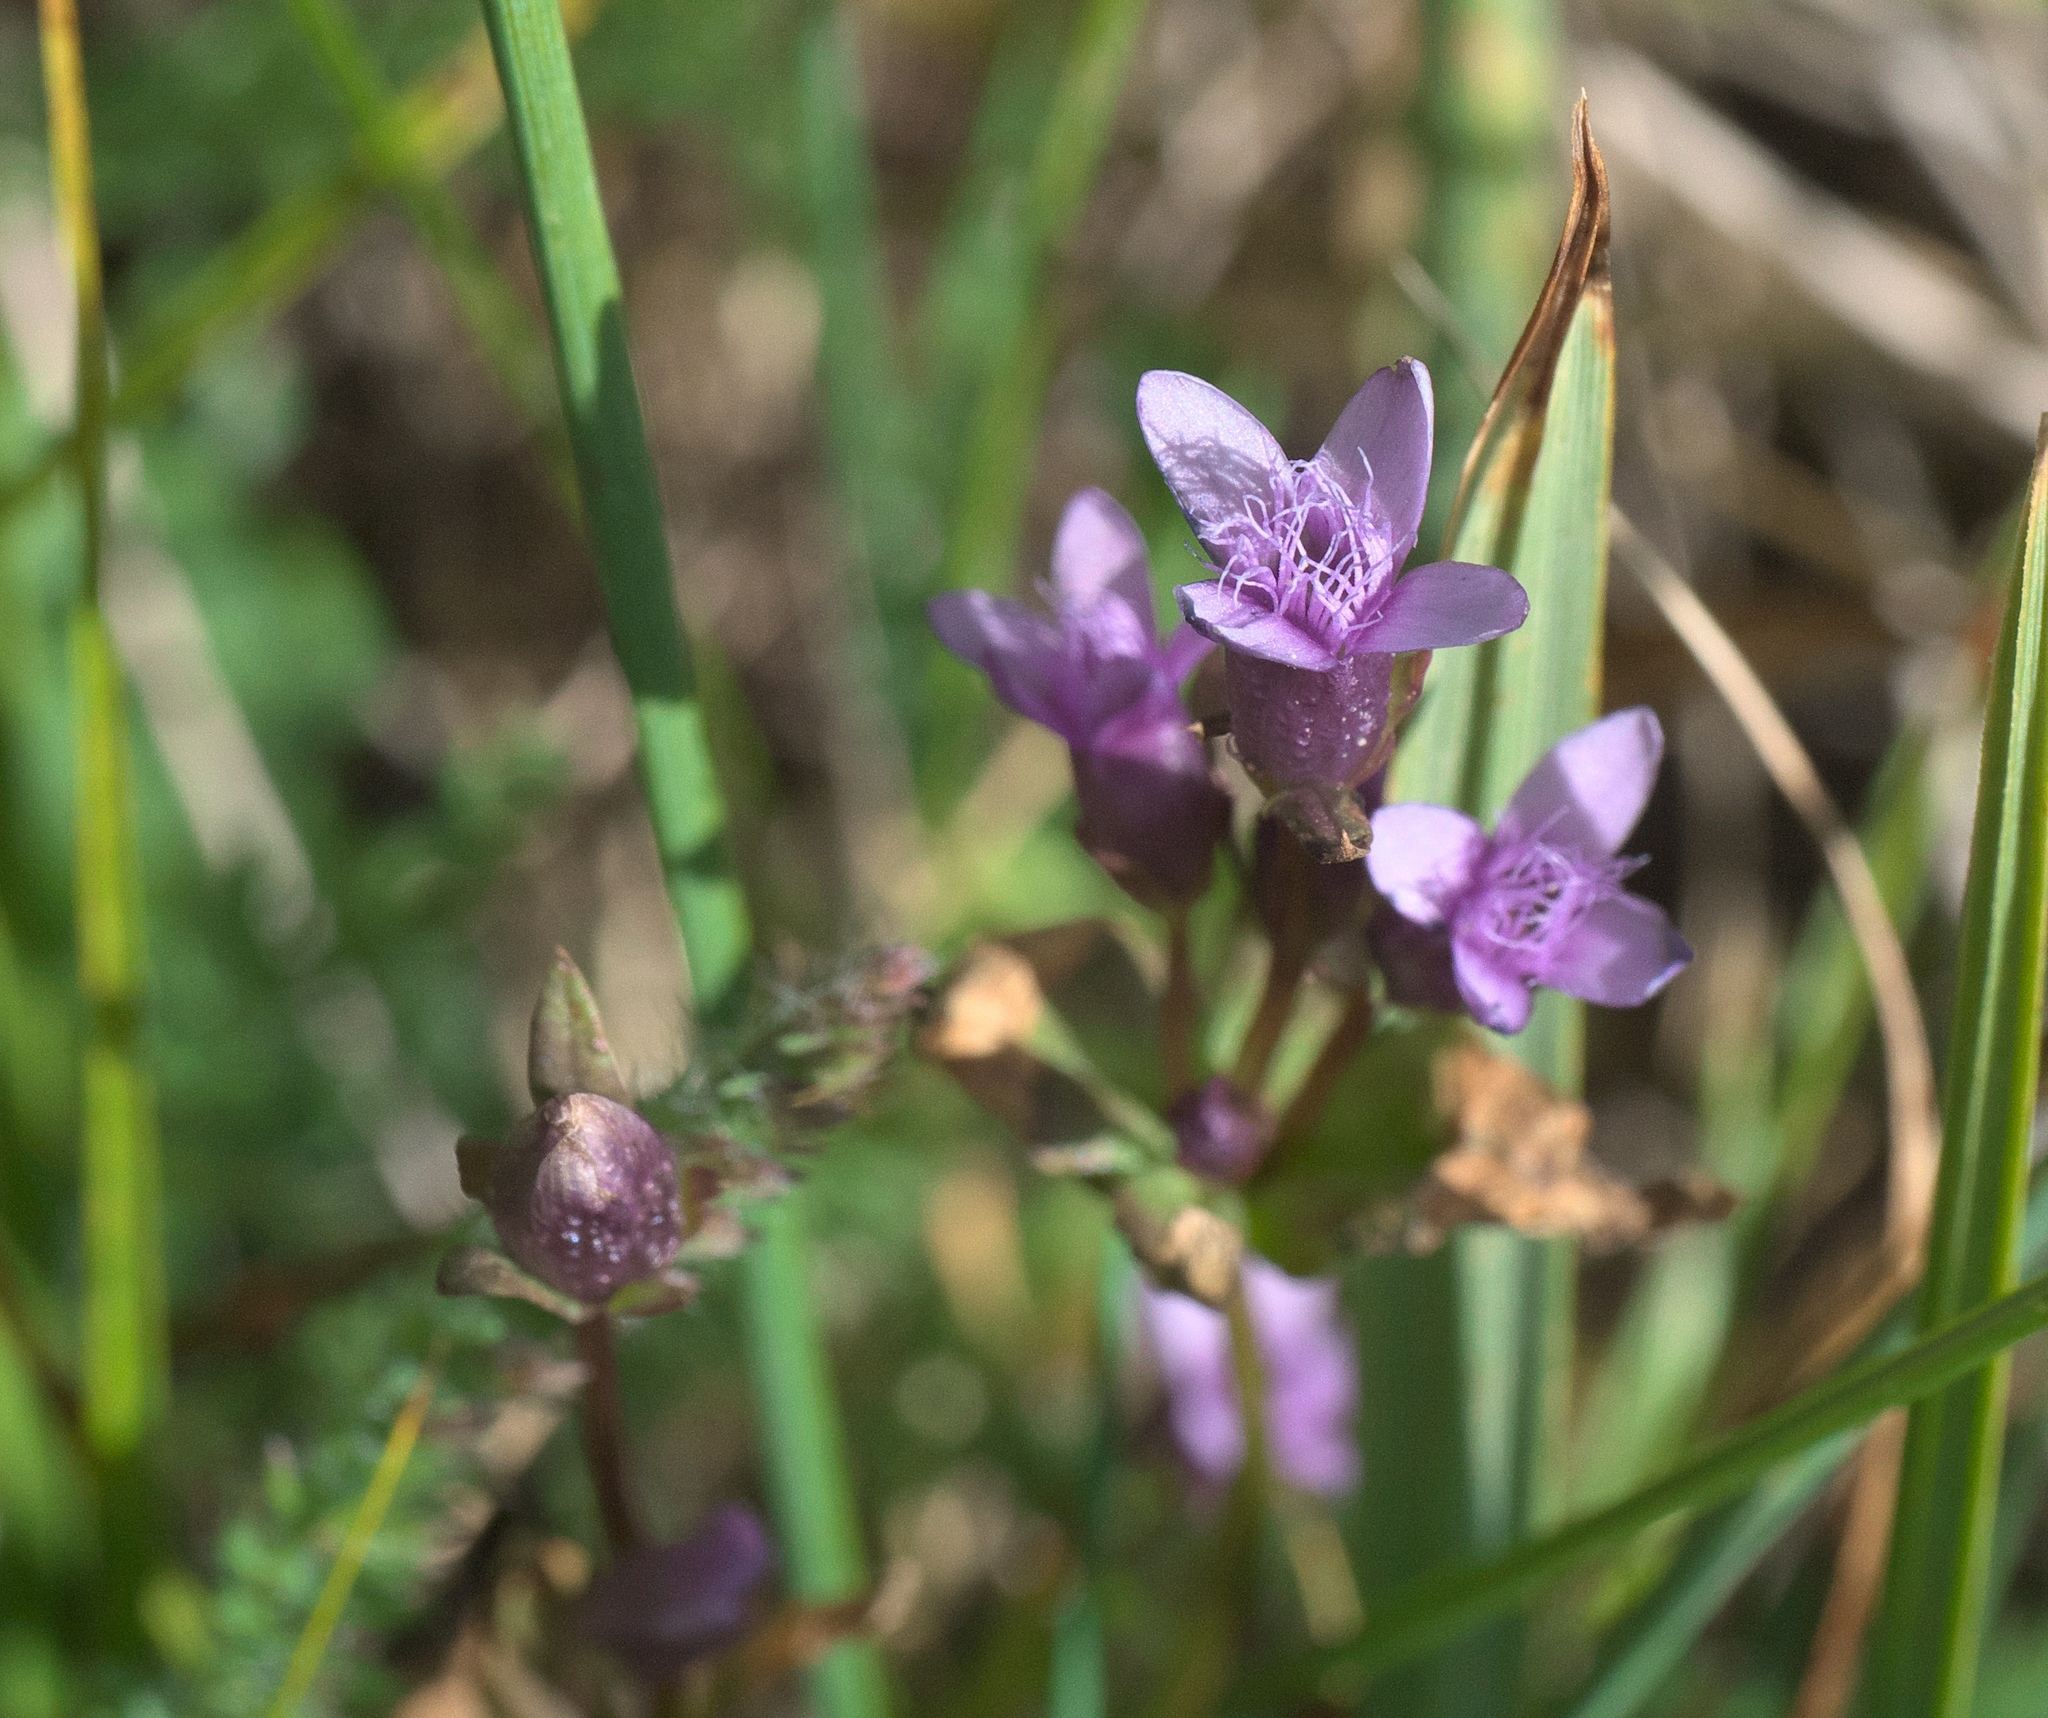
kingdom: Plantae
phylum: Tracheophyta
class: Magnoliopsida
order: Gentianales
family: Gentianaceae
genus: Gentianella
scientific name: Gentianella amarella
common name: Autumn gentian
